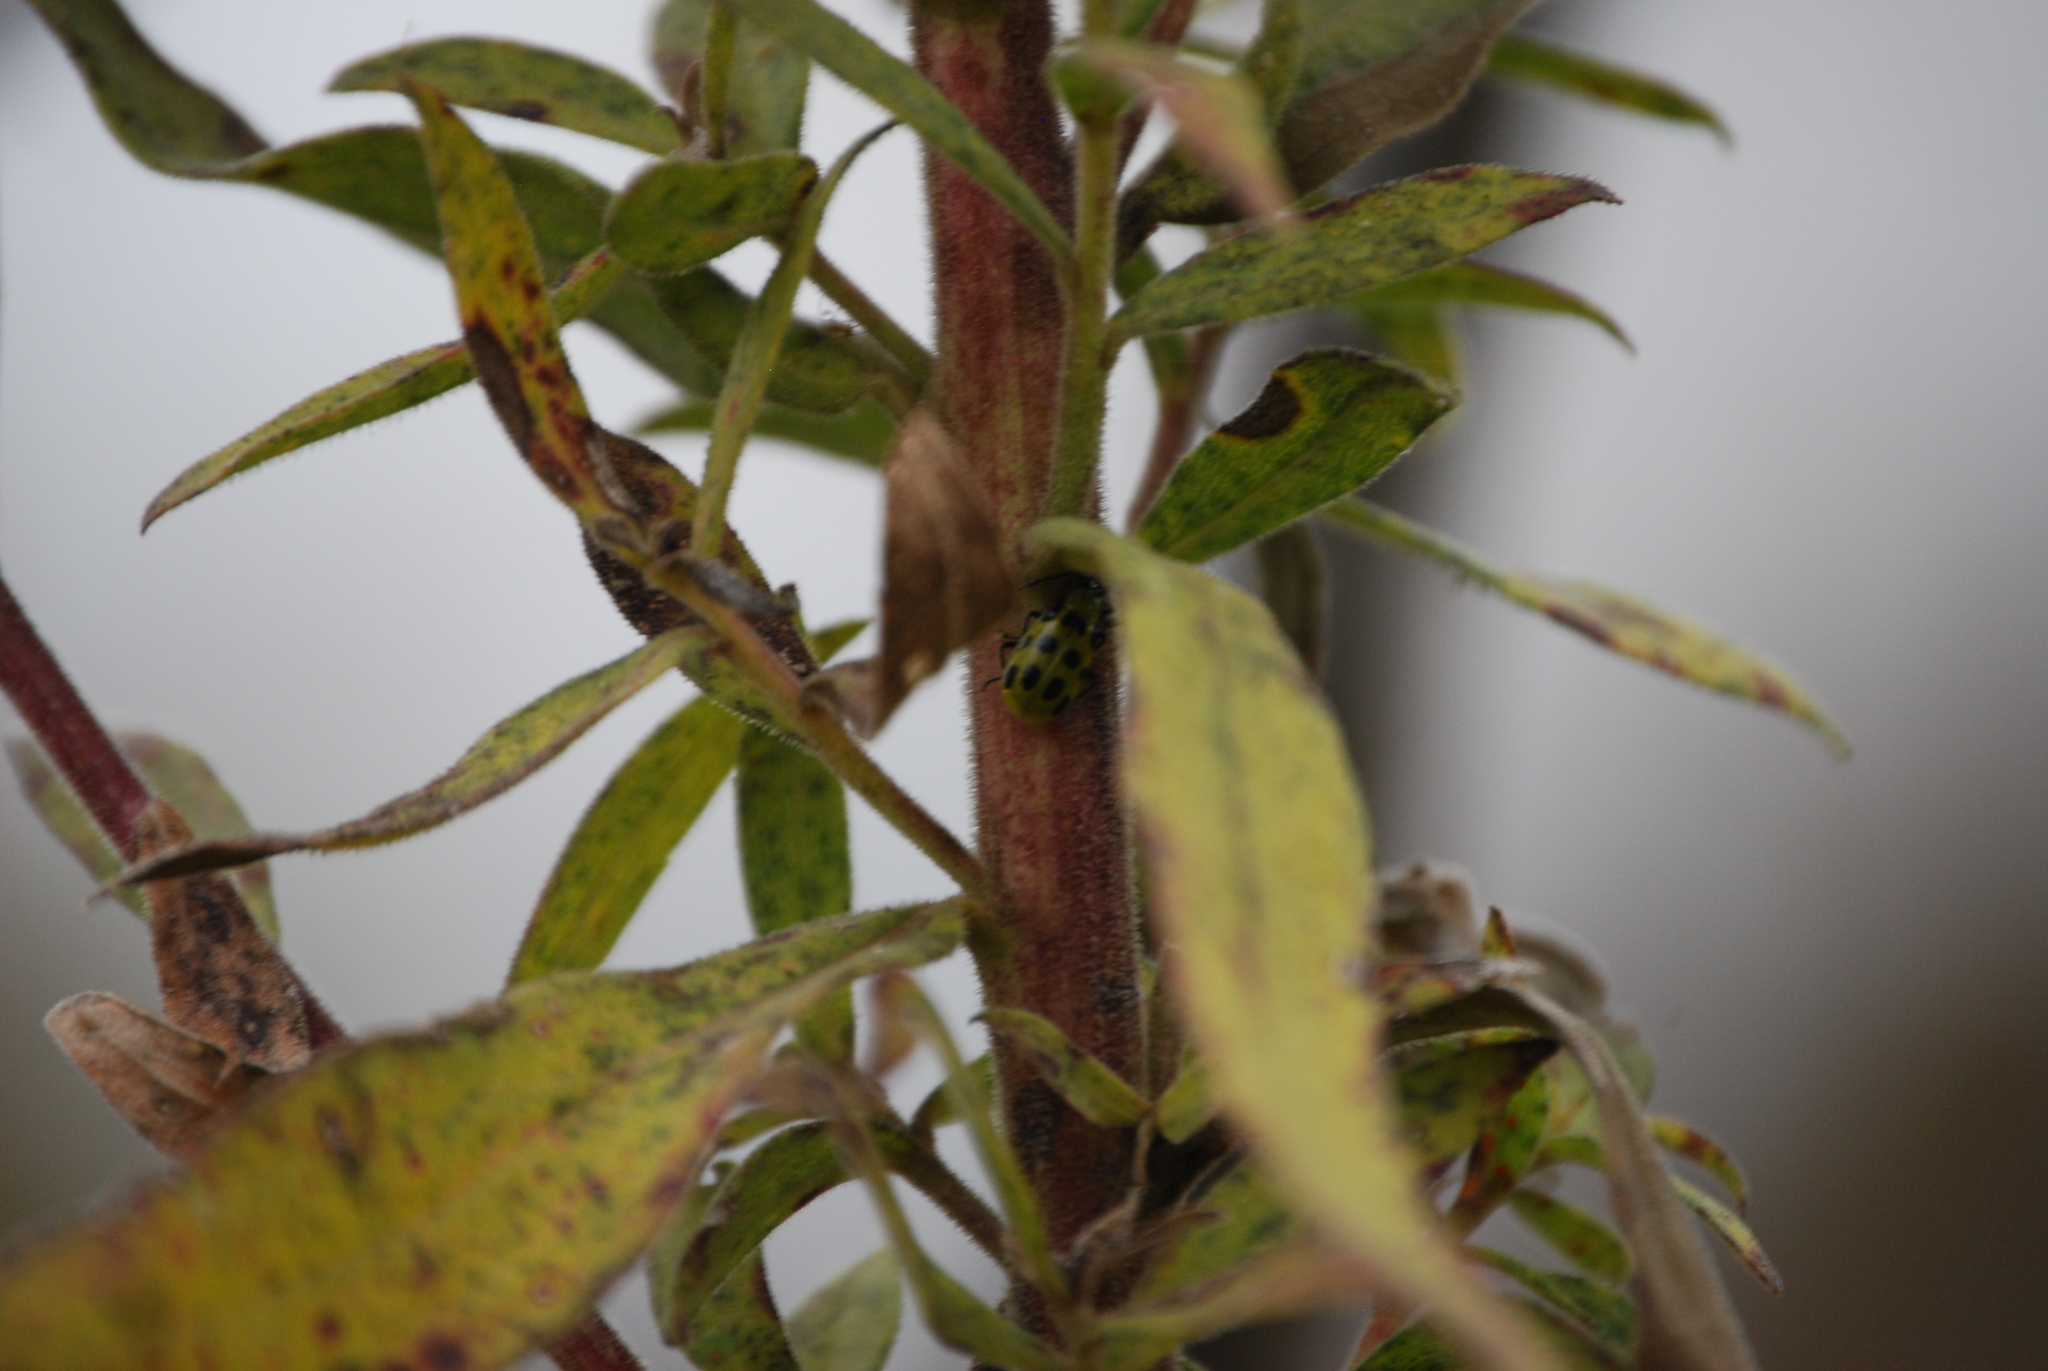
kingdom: Animalia
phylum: Arthropoda
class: Insecta
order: Coleoptera
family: Chrysomelidae
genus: Diabrotica
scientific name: Diabrotica undecimpunctata
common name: Spotted cucumber beetle
